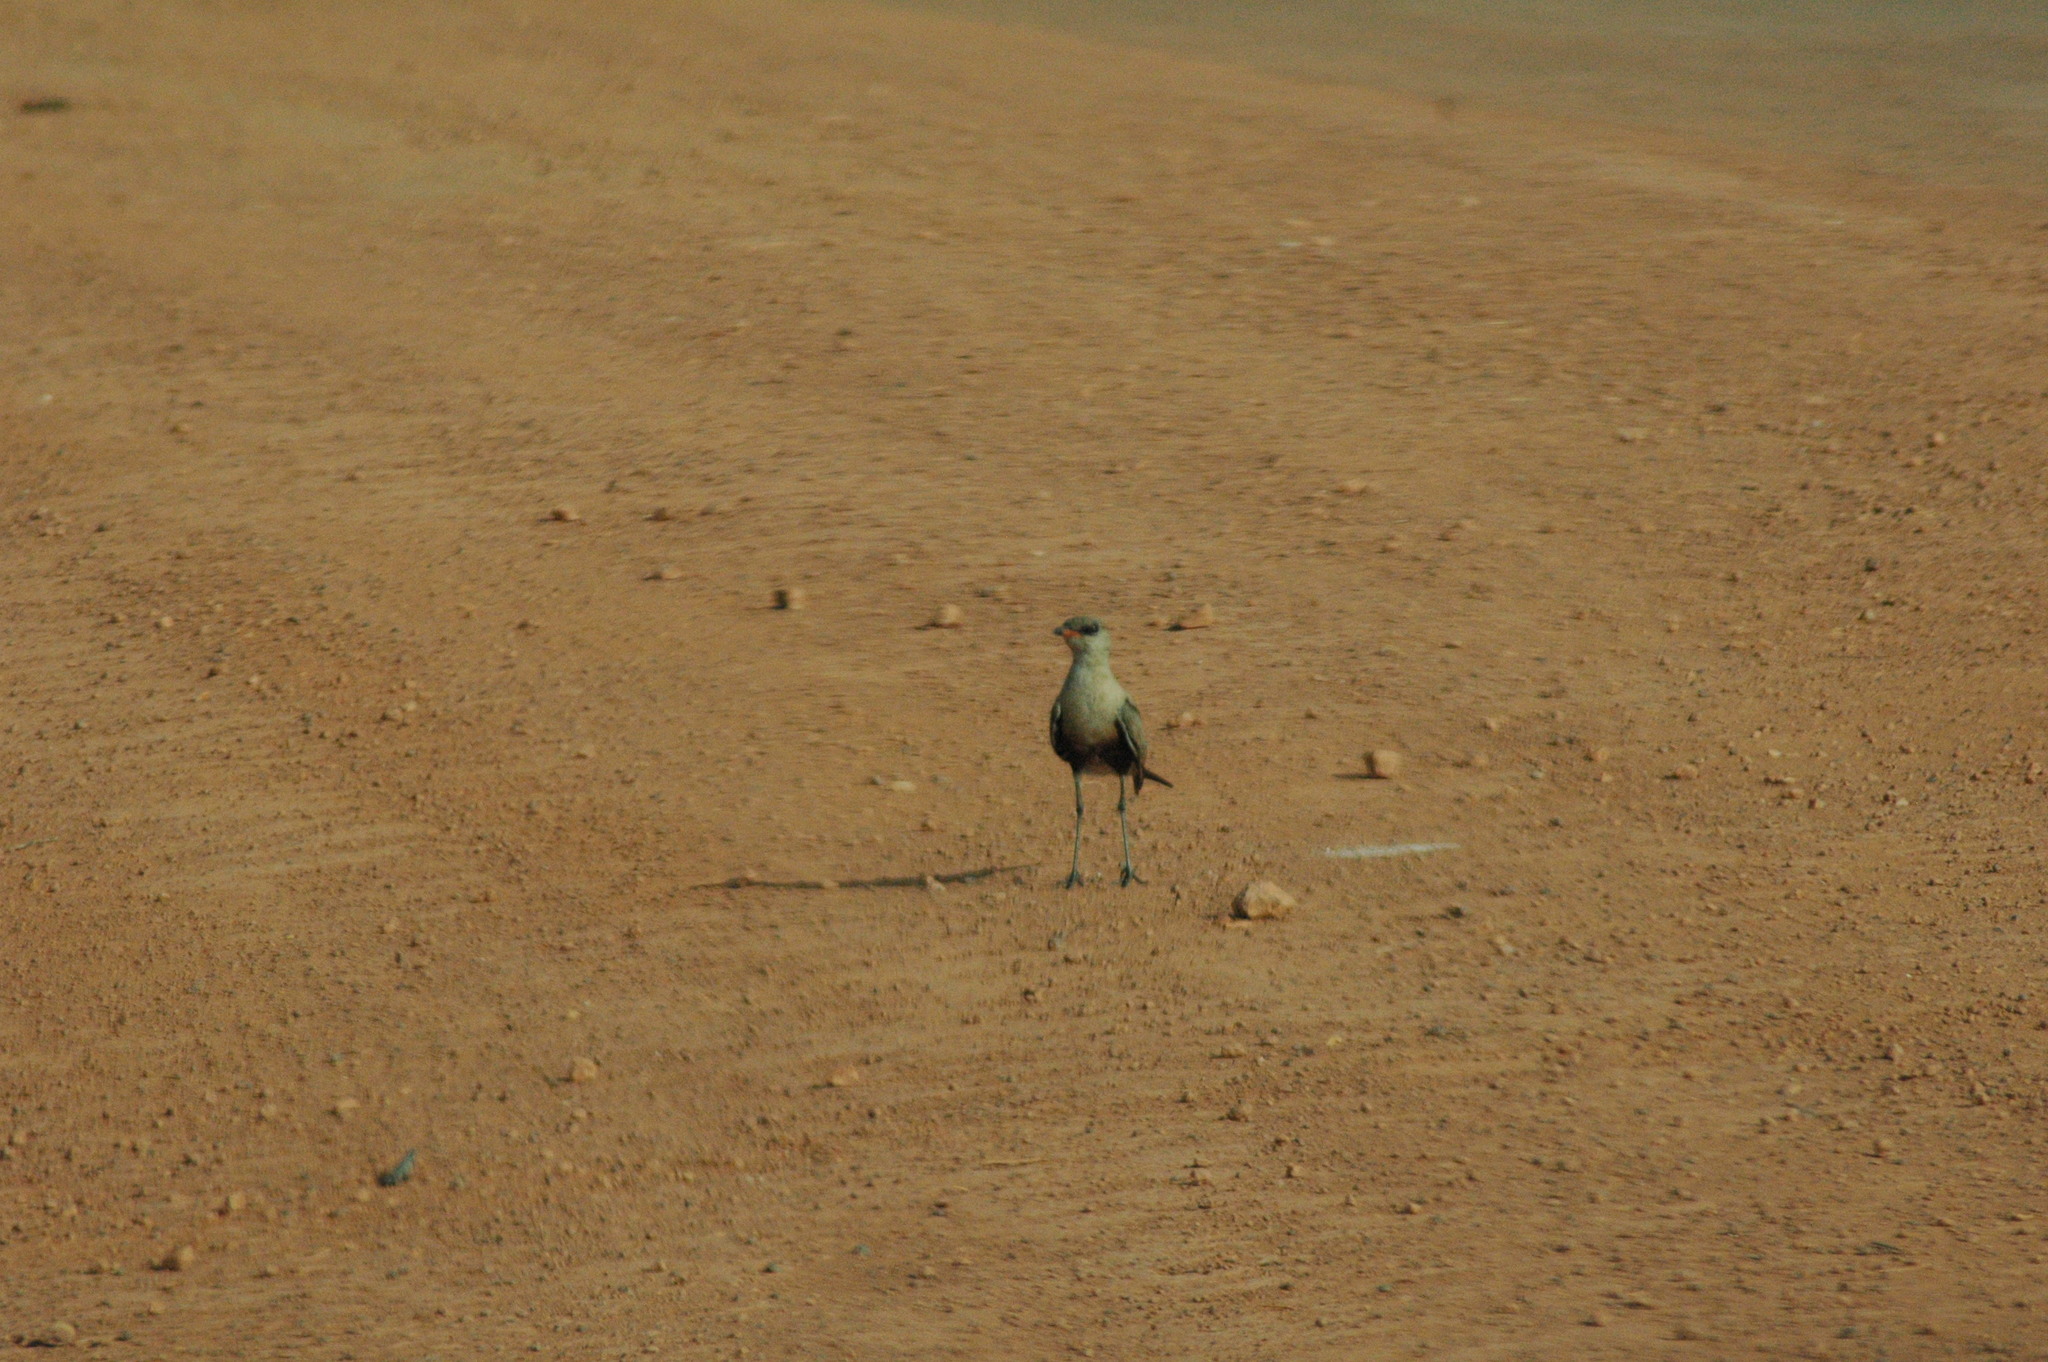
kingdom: Animalia
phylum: Chordata
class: Aves
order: Charadriiformes
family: Glareolidae
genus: Stiltia
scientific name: Stiltia isabella
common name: Australian pratincole
